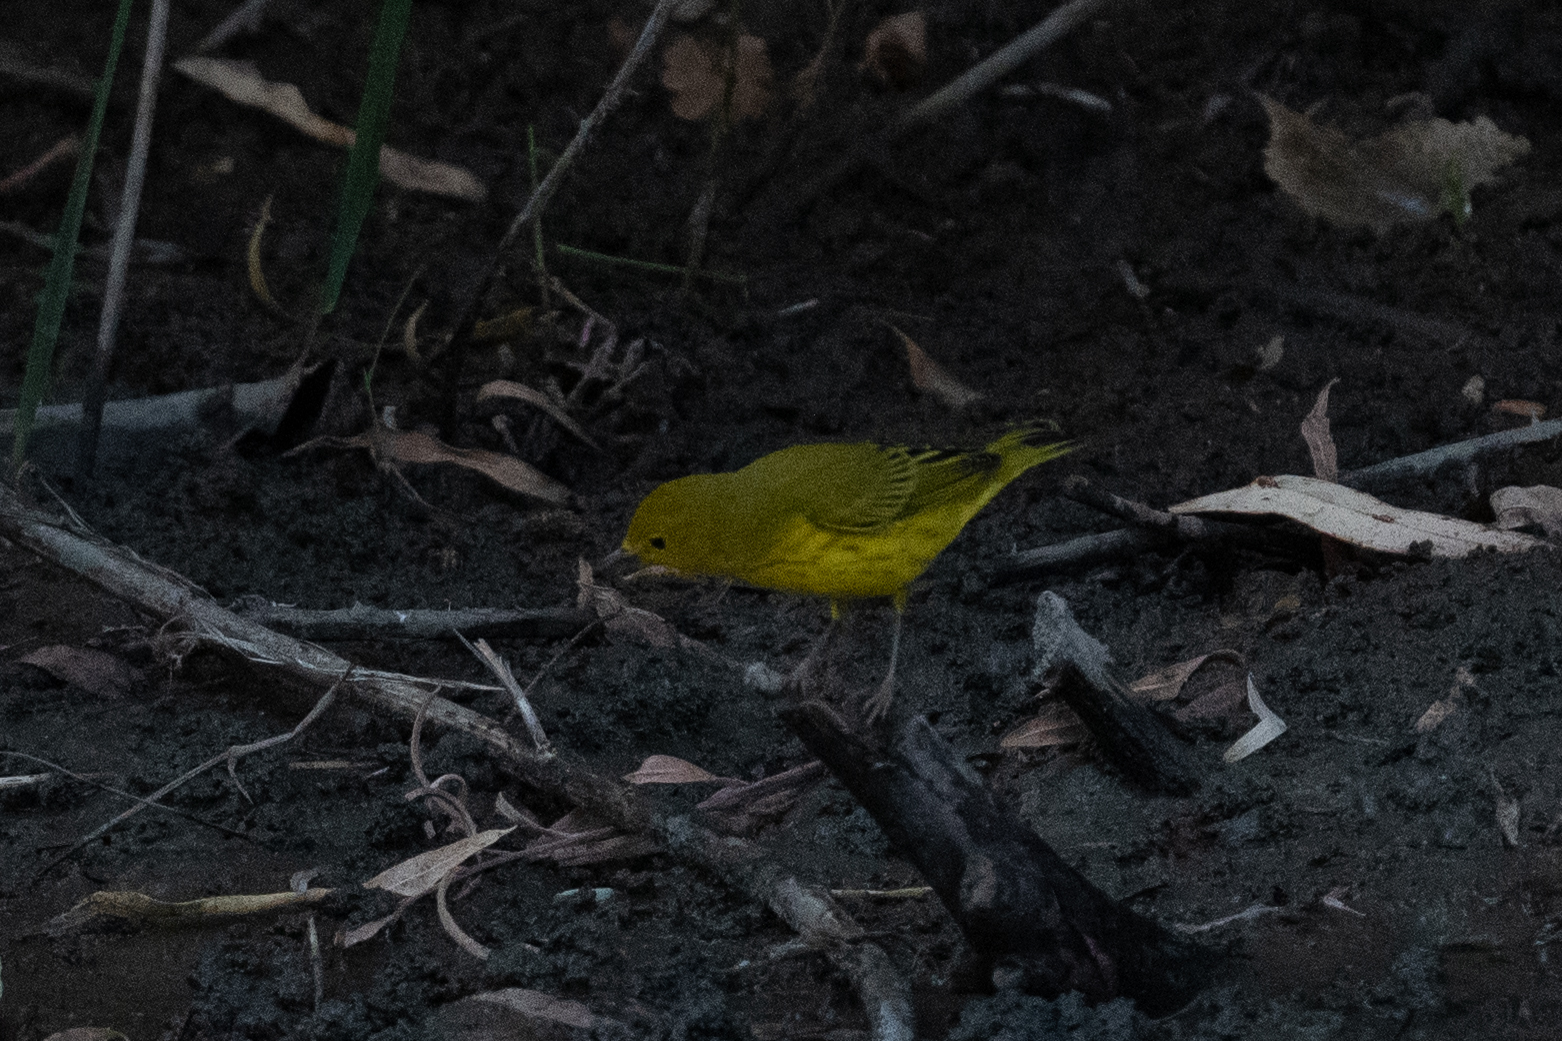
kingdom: Animalia
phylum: Chordata
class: Aves
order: Passeriformes
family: Parulidae
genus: Setophaga
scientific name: Setophaga petechia
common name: Yellow warbler
